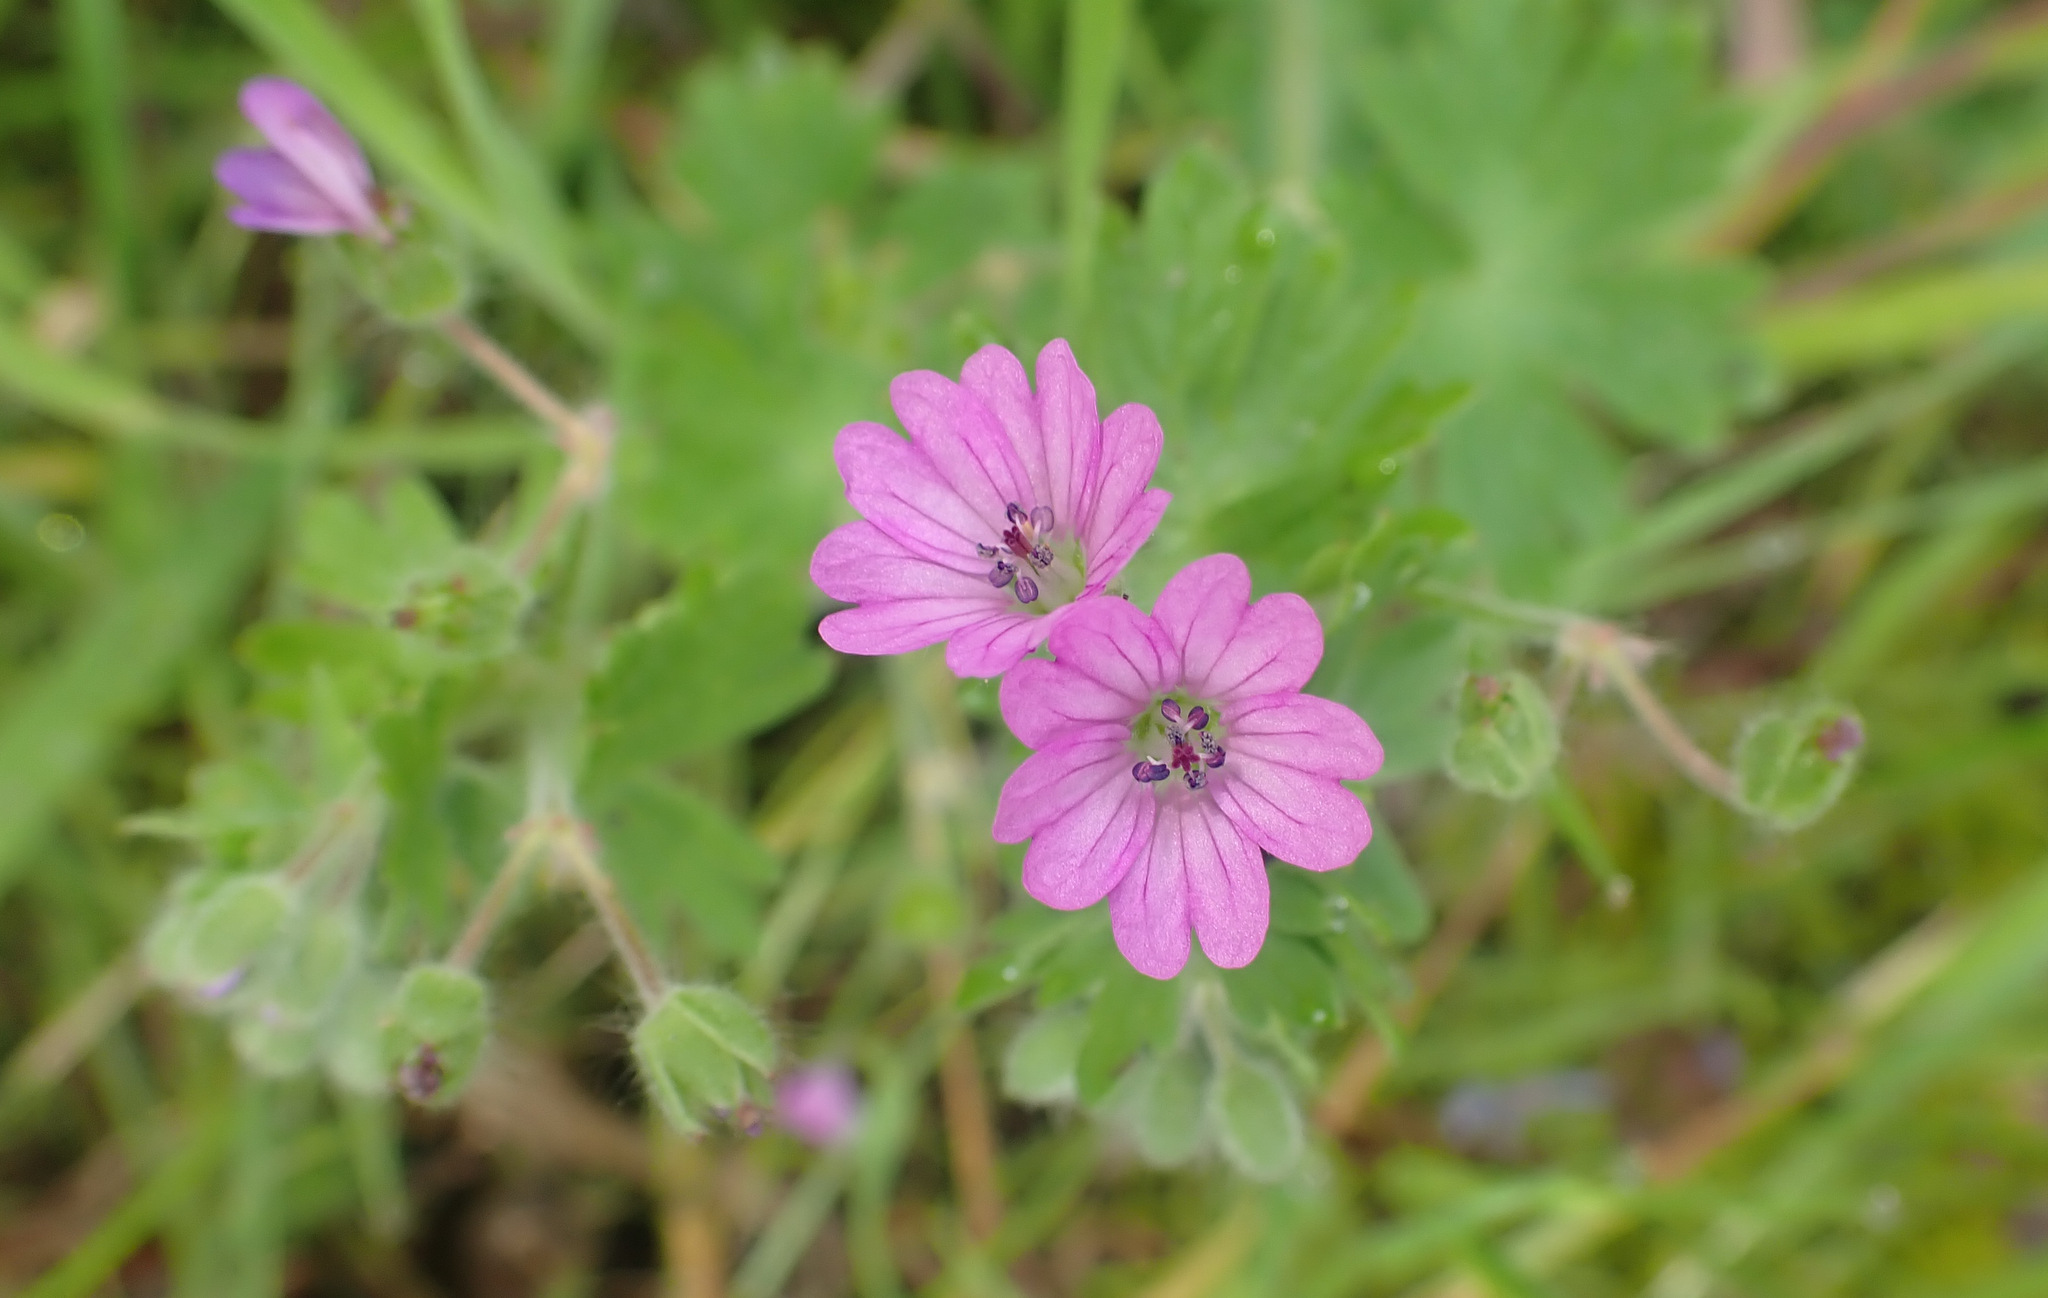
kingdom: Plantae
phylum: Tracheophyta
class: Magnoliopsida
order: Geraniales
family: Geraniaceae
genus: Geranium
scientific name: Geranium molle
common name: Dove's-foot crane's-bill
